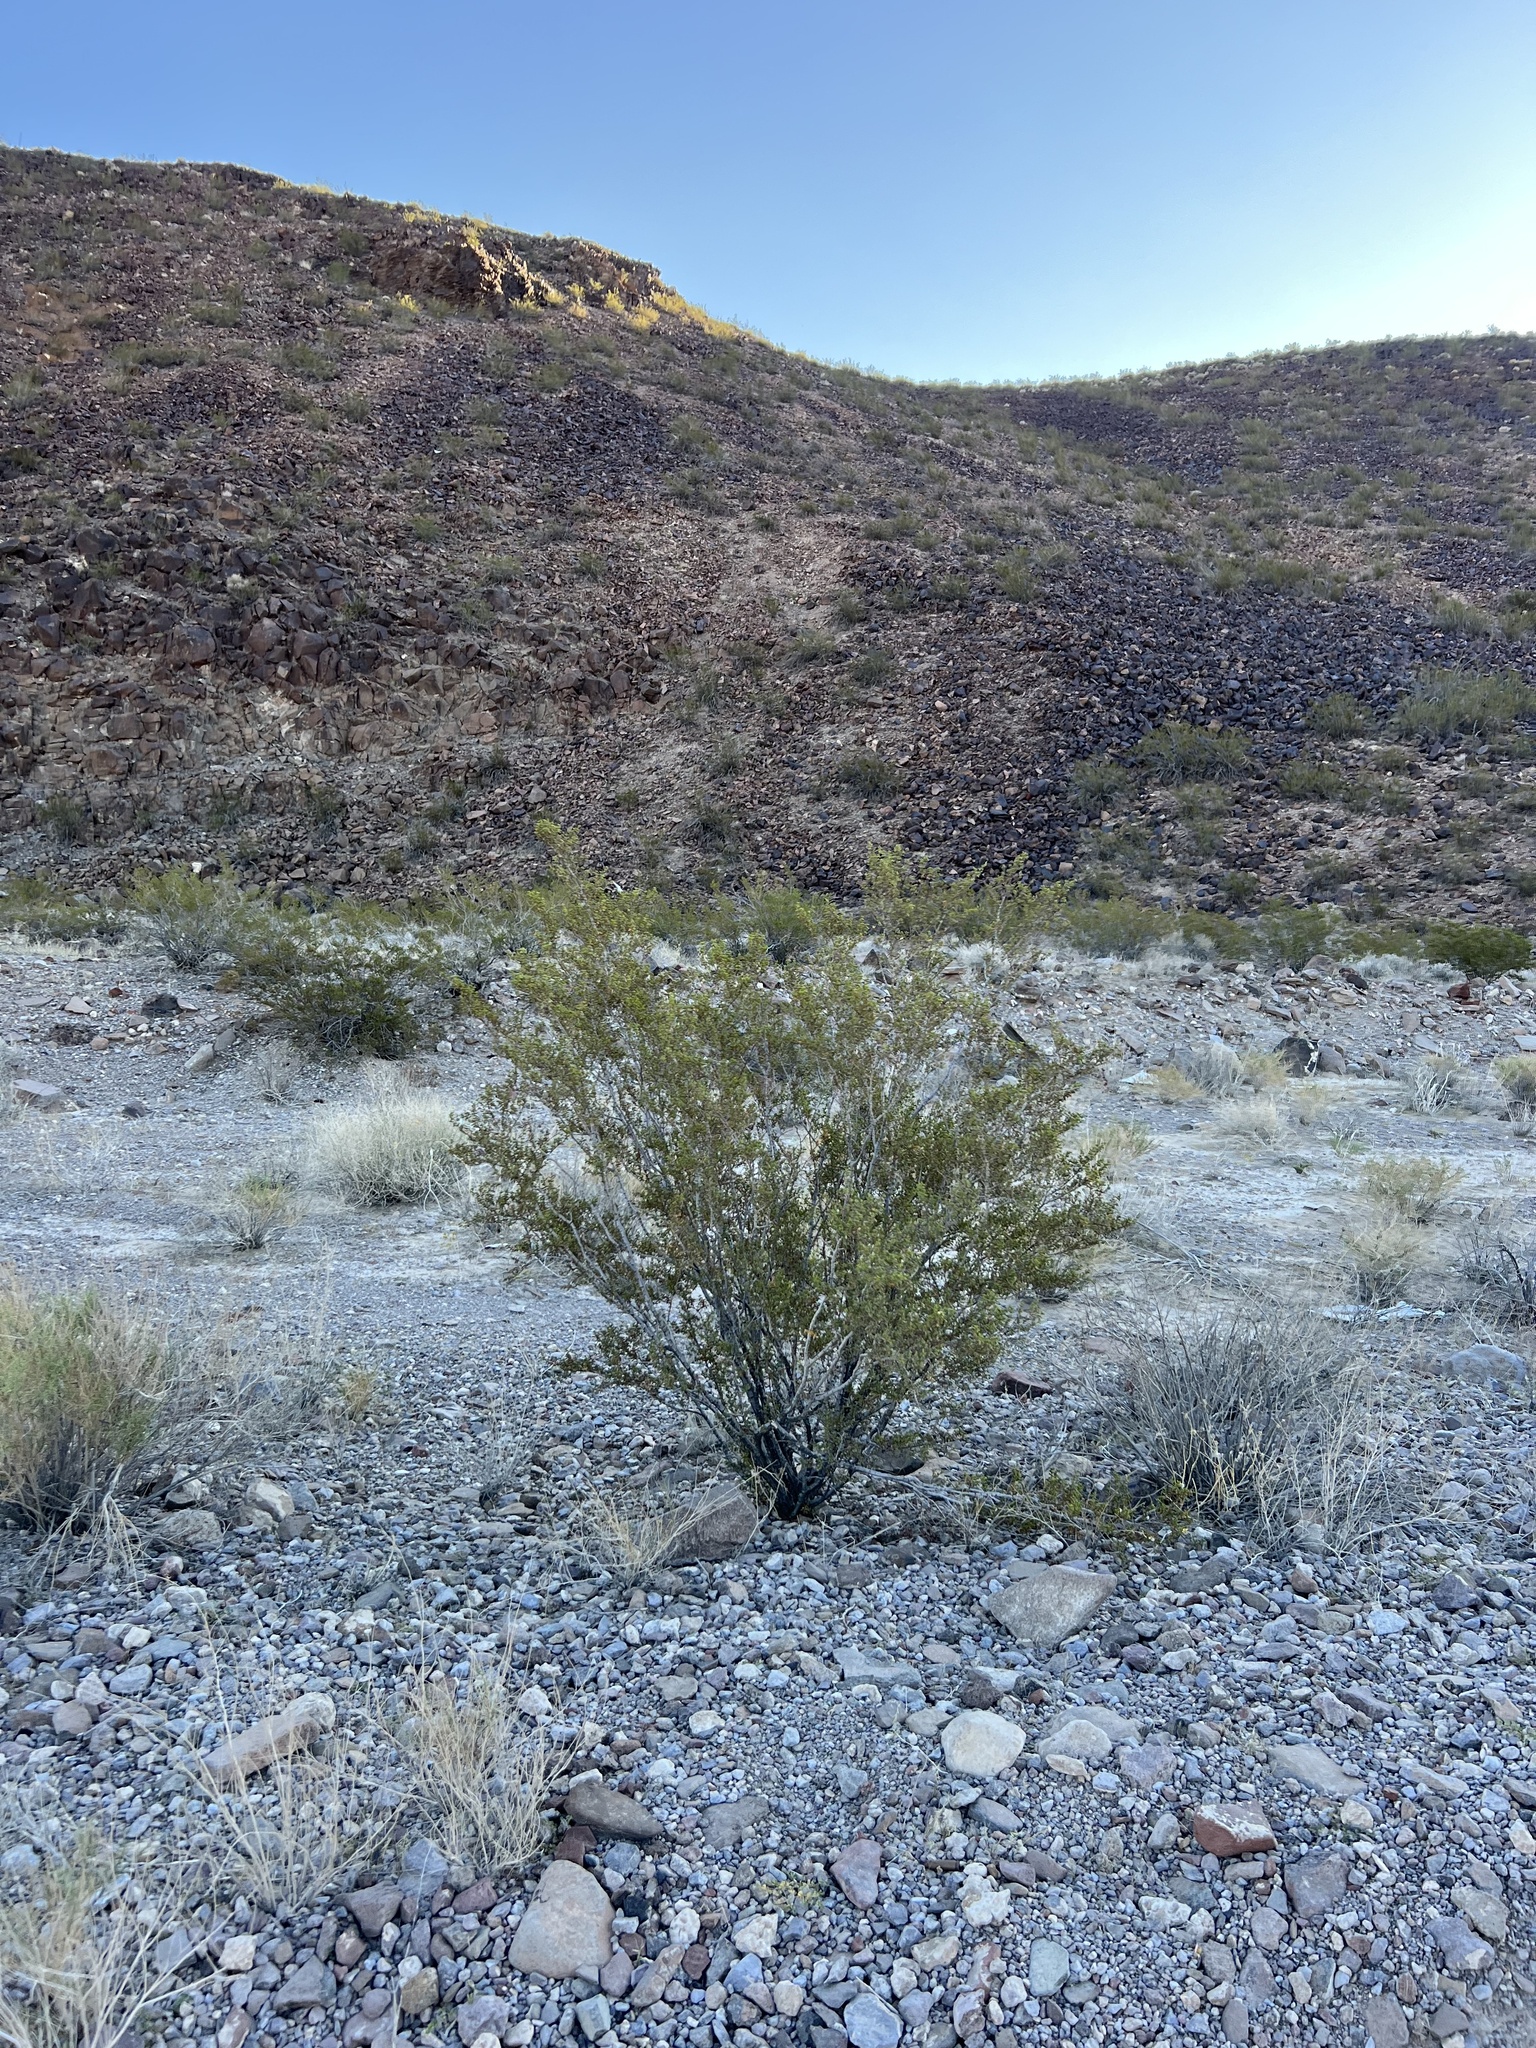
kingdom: Plantae
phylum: Tracheophyta
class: Magnoliopsida
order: Zygophyllales
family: Zygophyllaceae
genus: Larrea
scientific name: Larrea tridentata
